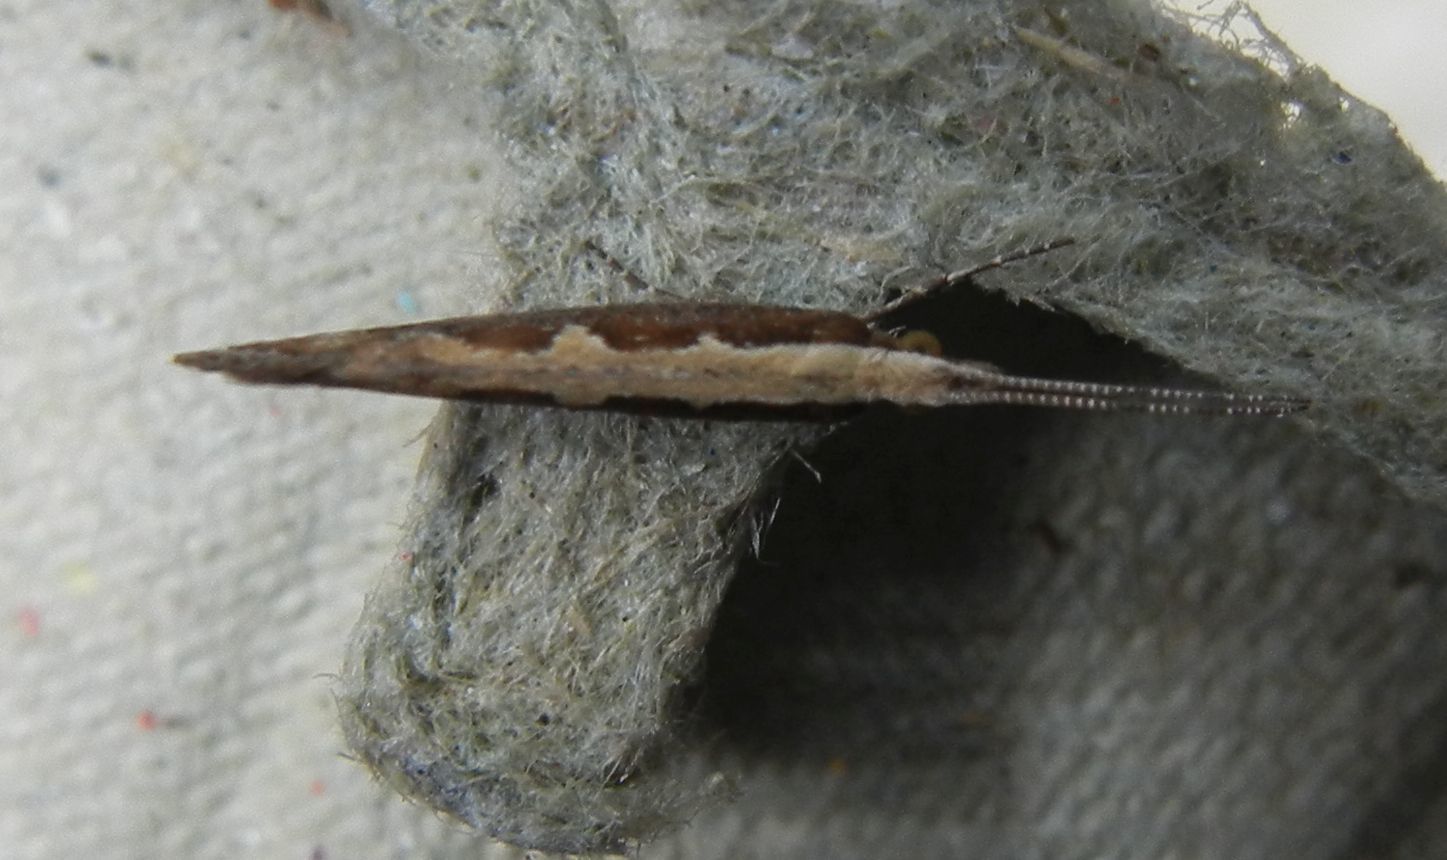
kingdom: Animalia
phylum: Arthropoda
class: Insecta
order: Lepidoptera
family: Plutellidae
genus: Plutella
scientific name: Plutella xylostella
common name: Diamond-back moth
